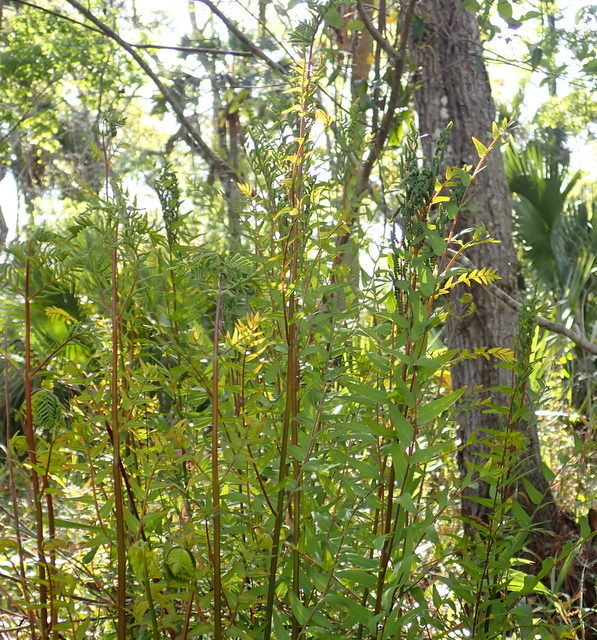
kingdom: Plantae
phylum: Tracheophyta
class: Polypodiopsida
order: Osmundales
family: Osmundaceae
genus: Osmunda
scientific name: Osmunda spectabilis
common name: American royal fern
